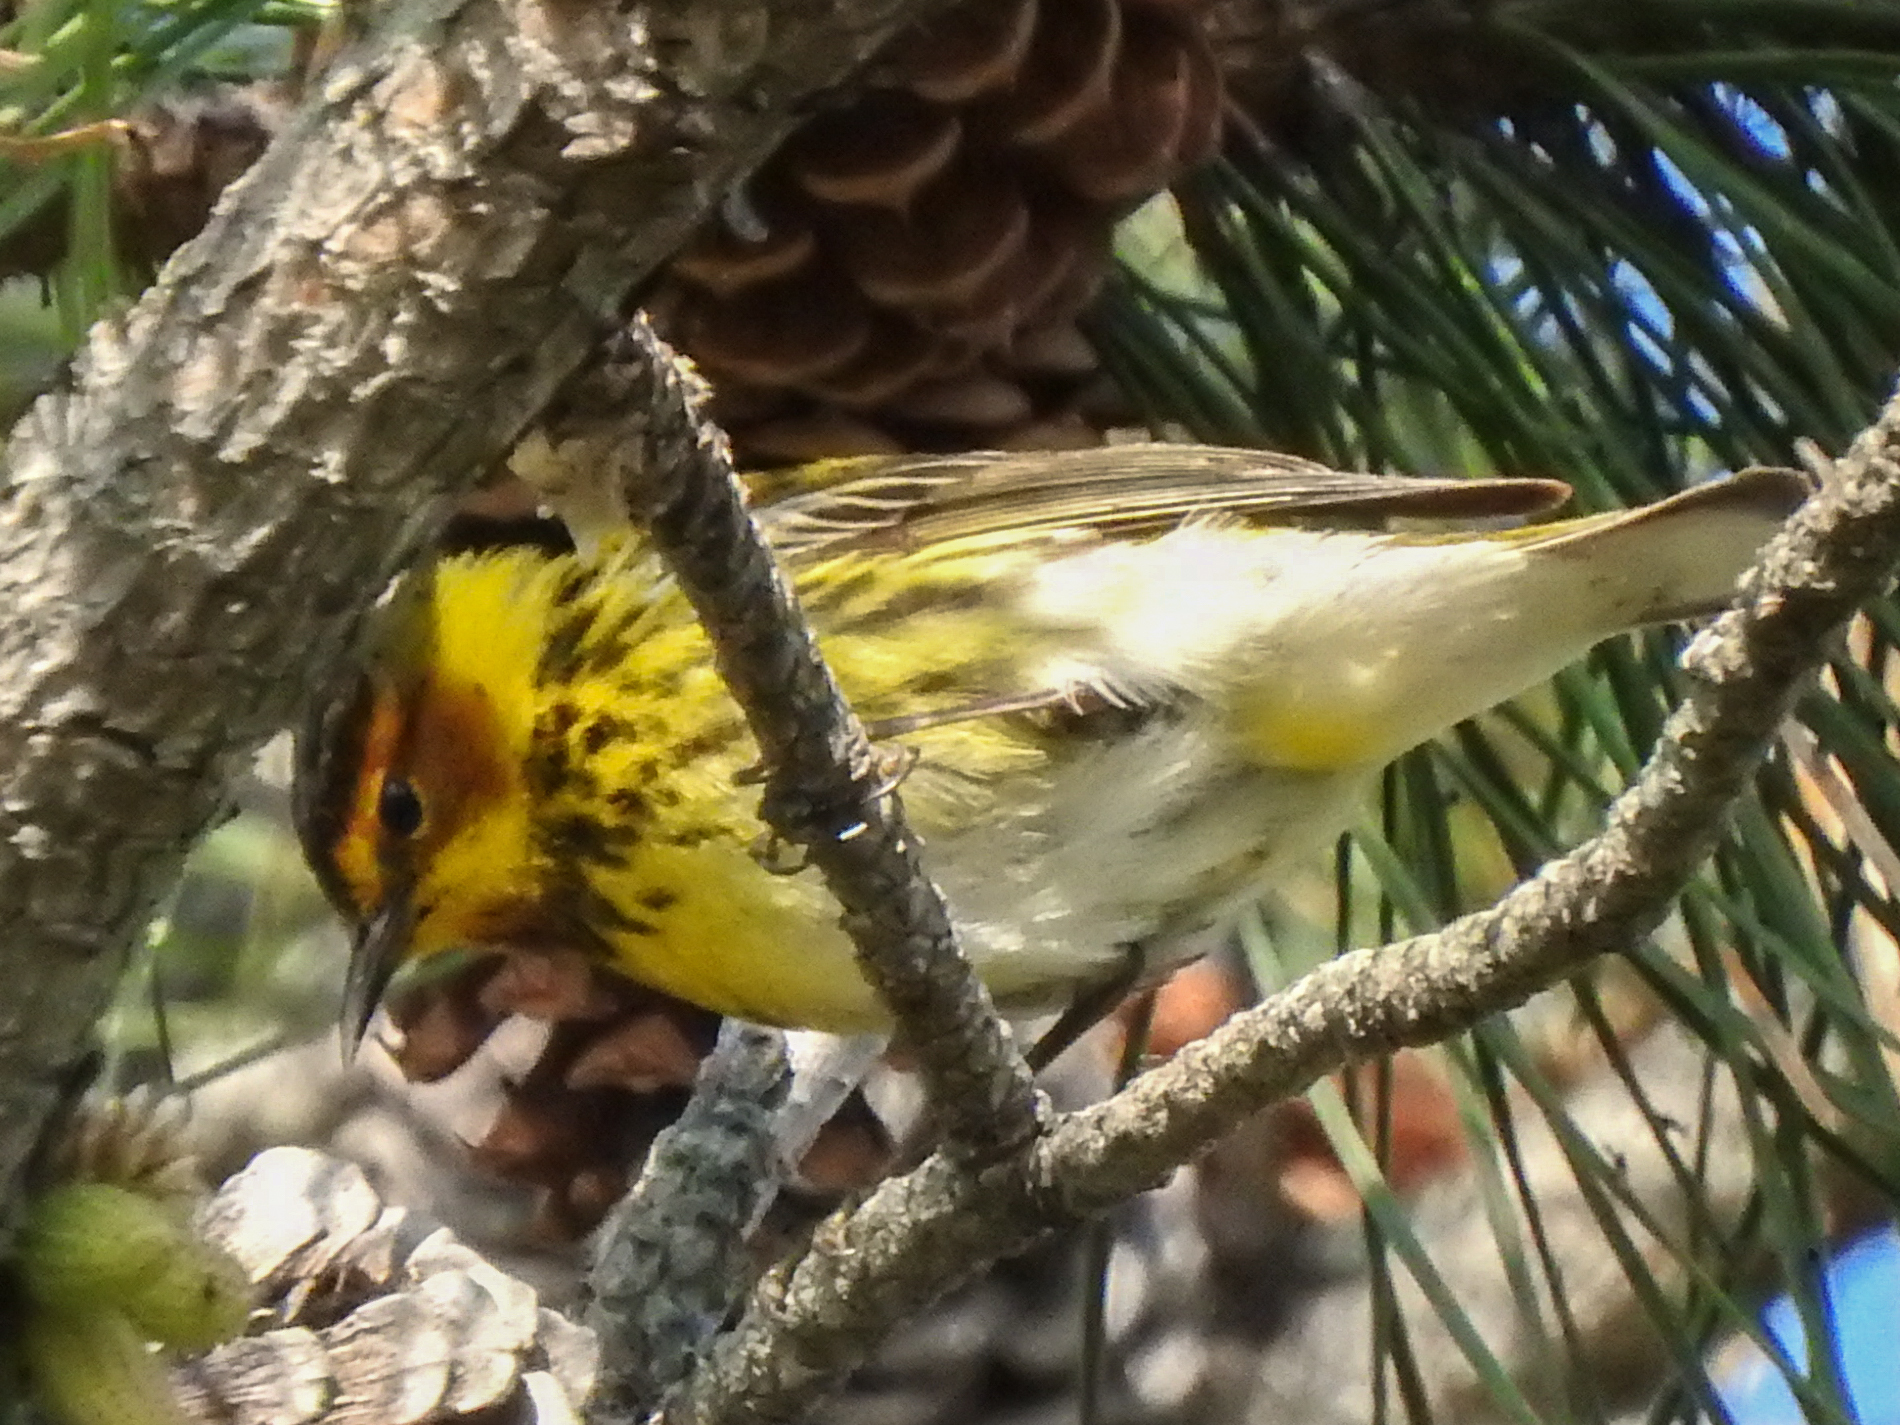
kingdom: Animalia
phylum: Chordata
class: Aves
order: Passeriformes
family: Parulidae
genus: Setophaga
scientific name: Setophaga tigrina
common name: Cape may warbler
